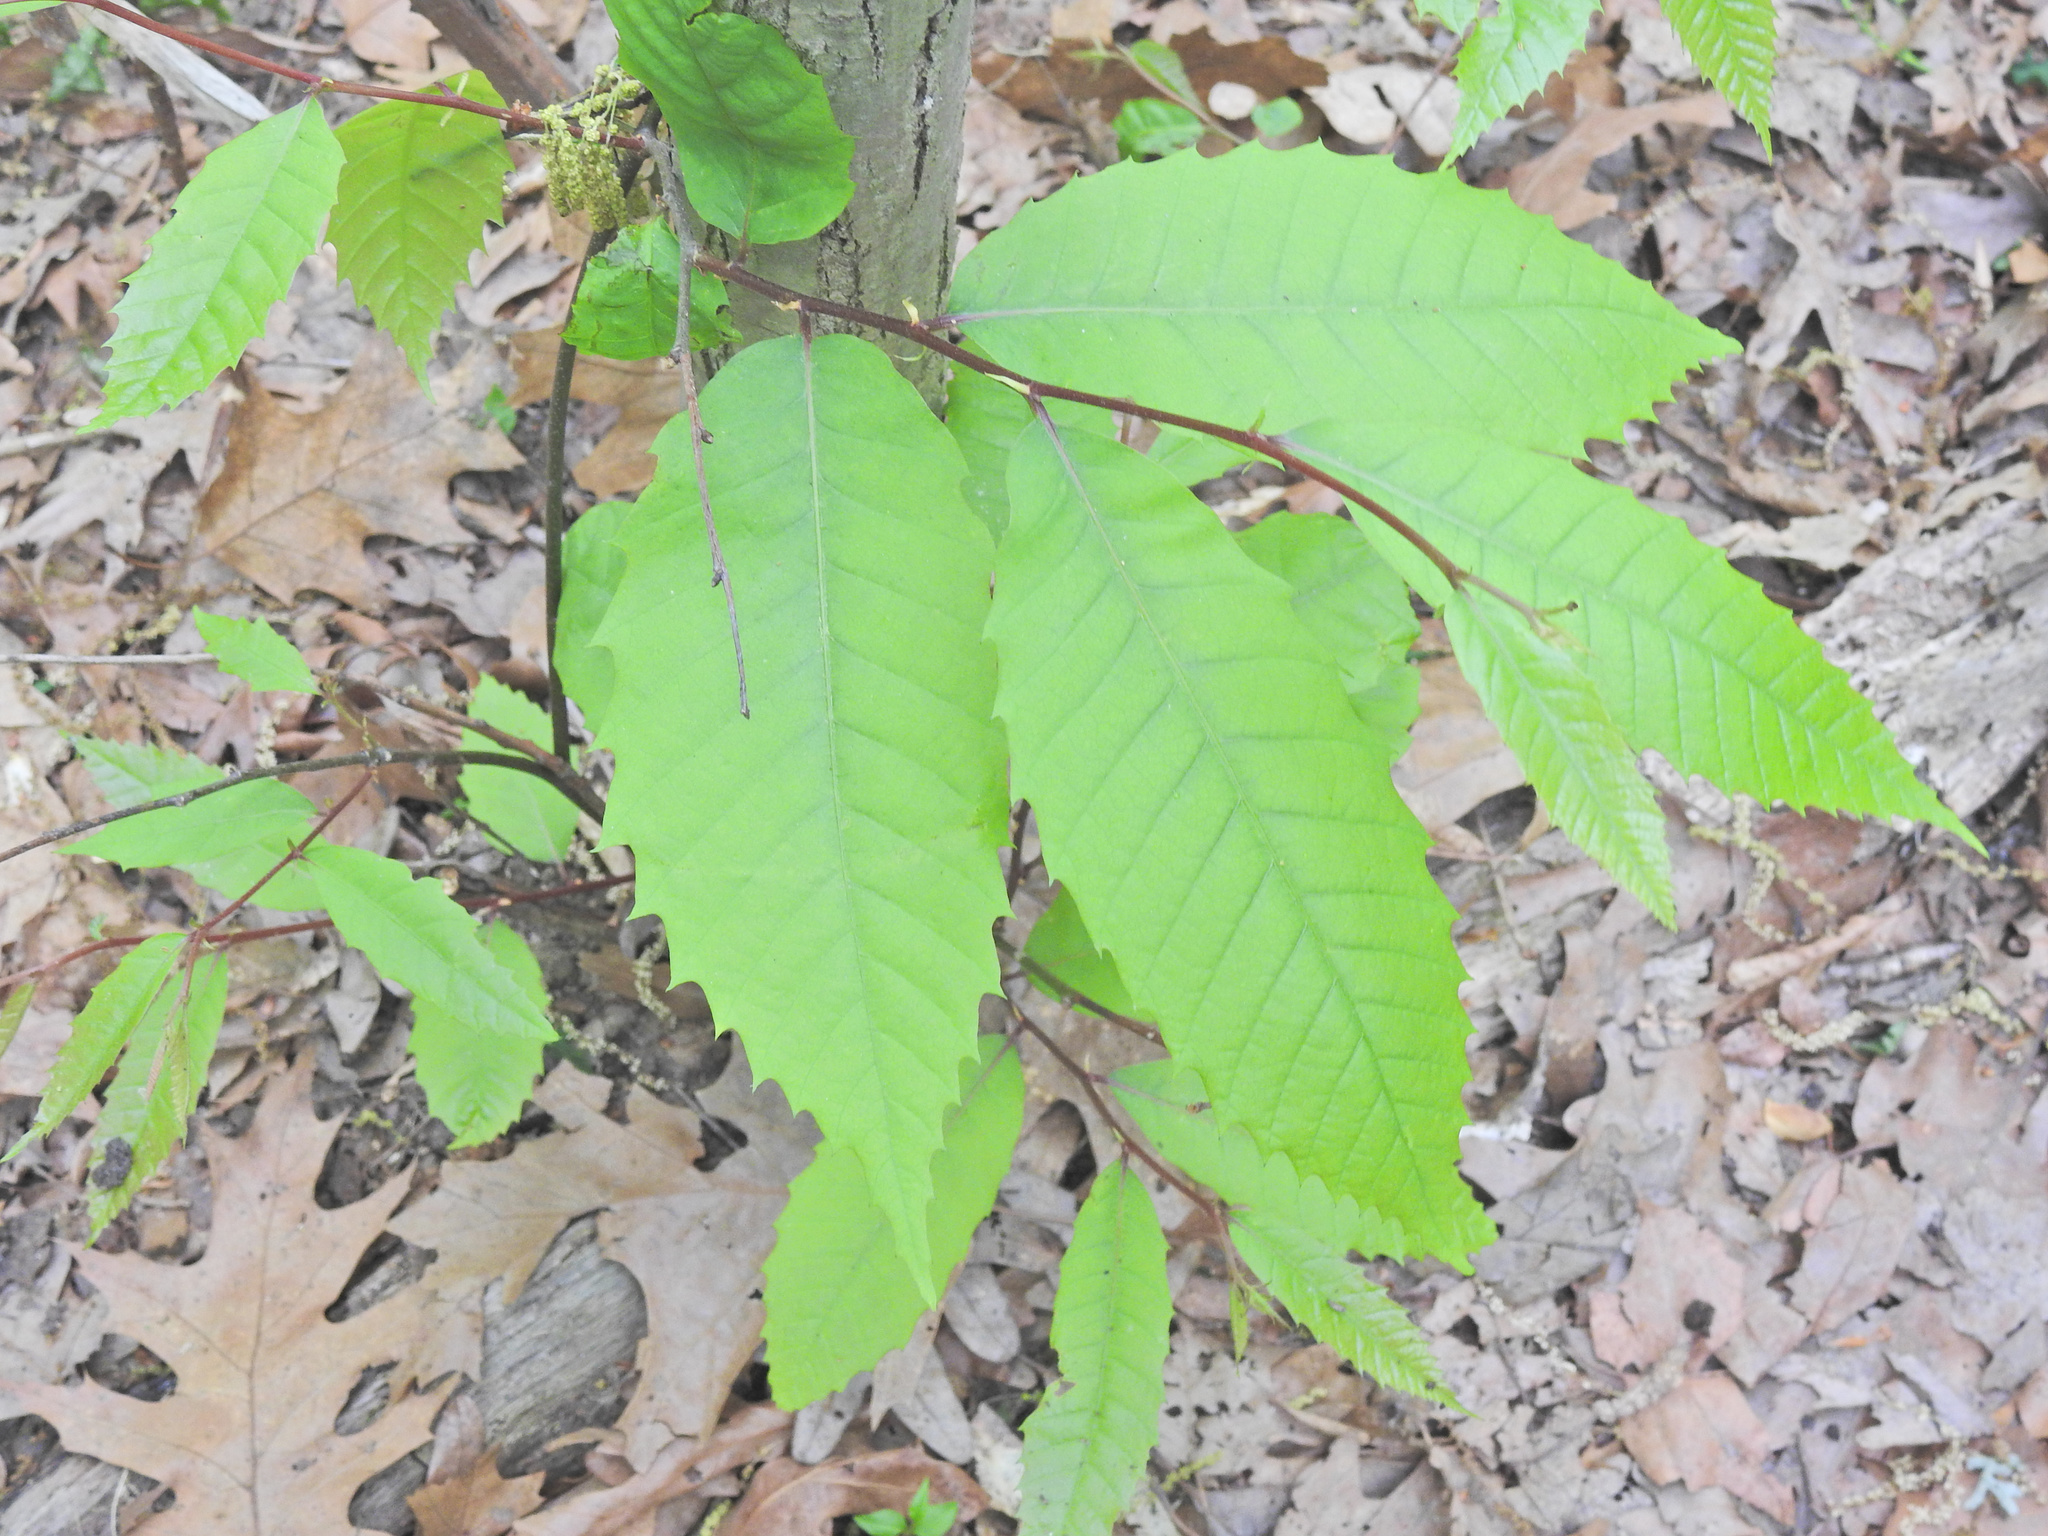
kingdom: Plantae
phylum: Tracheophyta
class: Magnoliopsida
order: Fagales
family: Fagaceae
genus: Castanea
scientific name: Castanea dentata
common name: American chestnut
